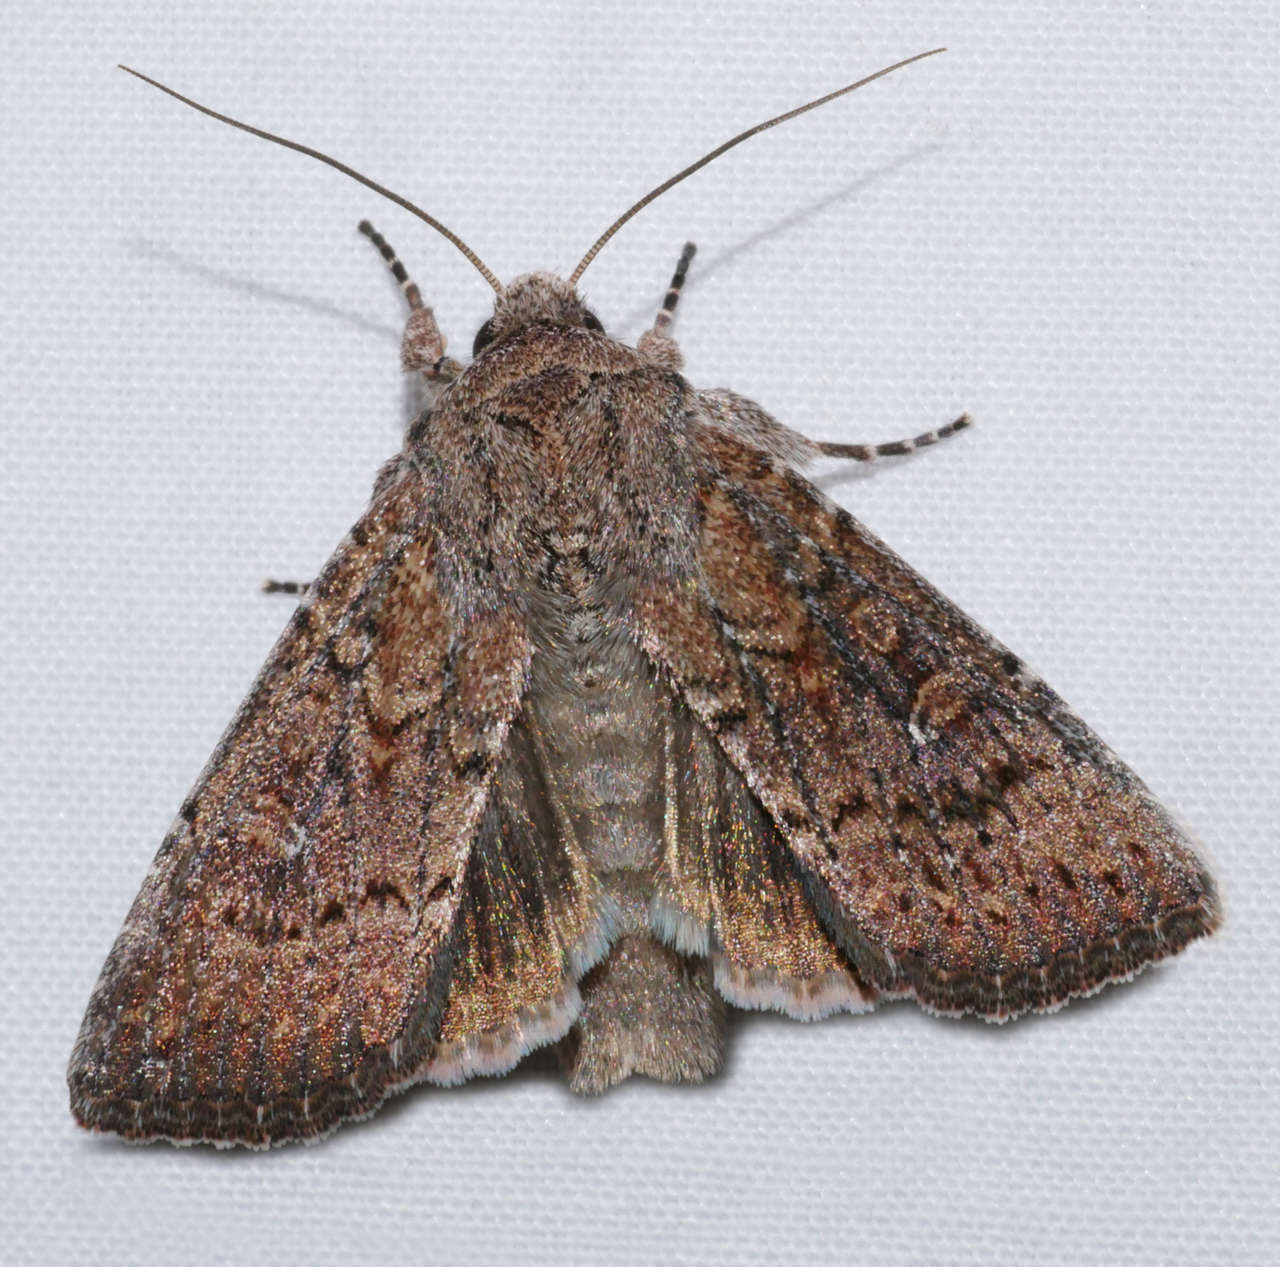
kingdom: Animalia
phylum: Arthropoda
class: Insecta
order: Lepidoptera
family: Noctuidae
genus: Dasygaster
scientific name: Dasygaster padockina
